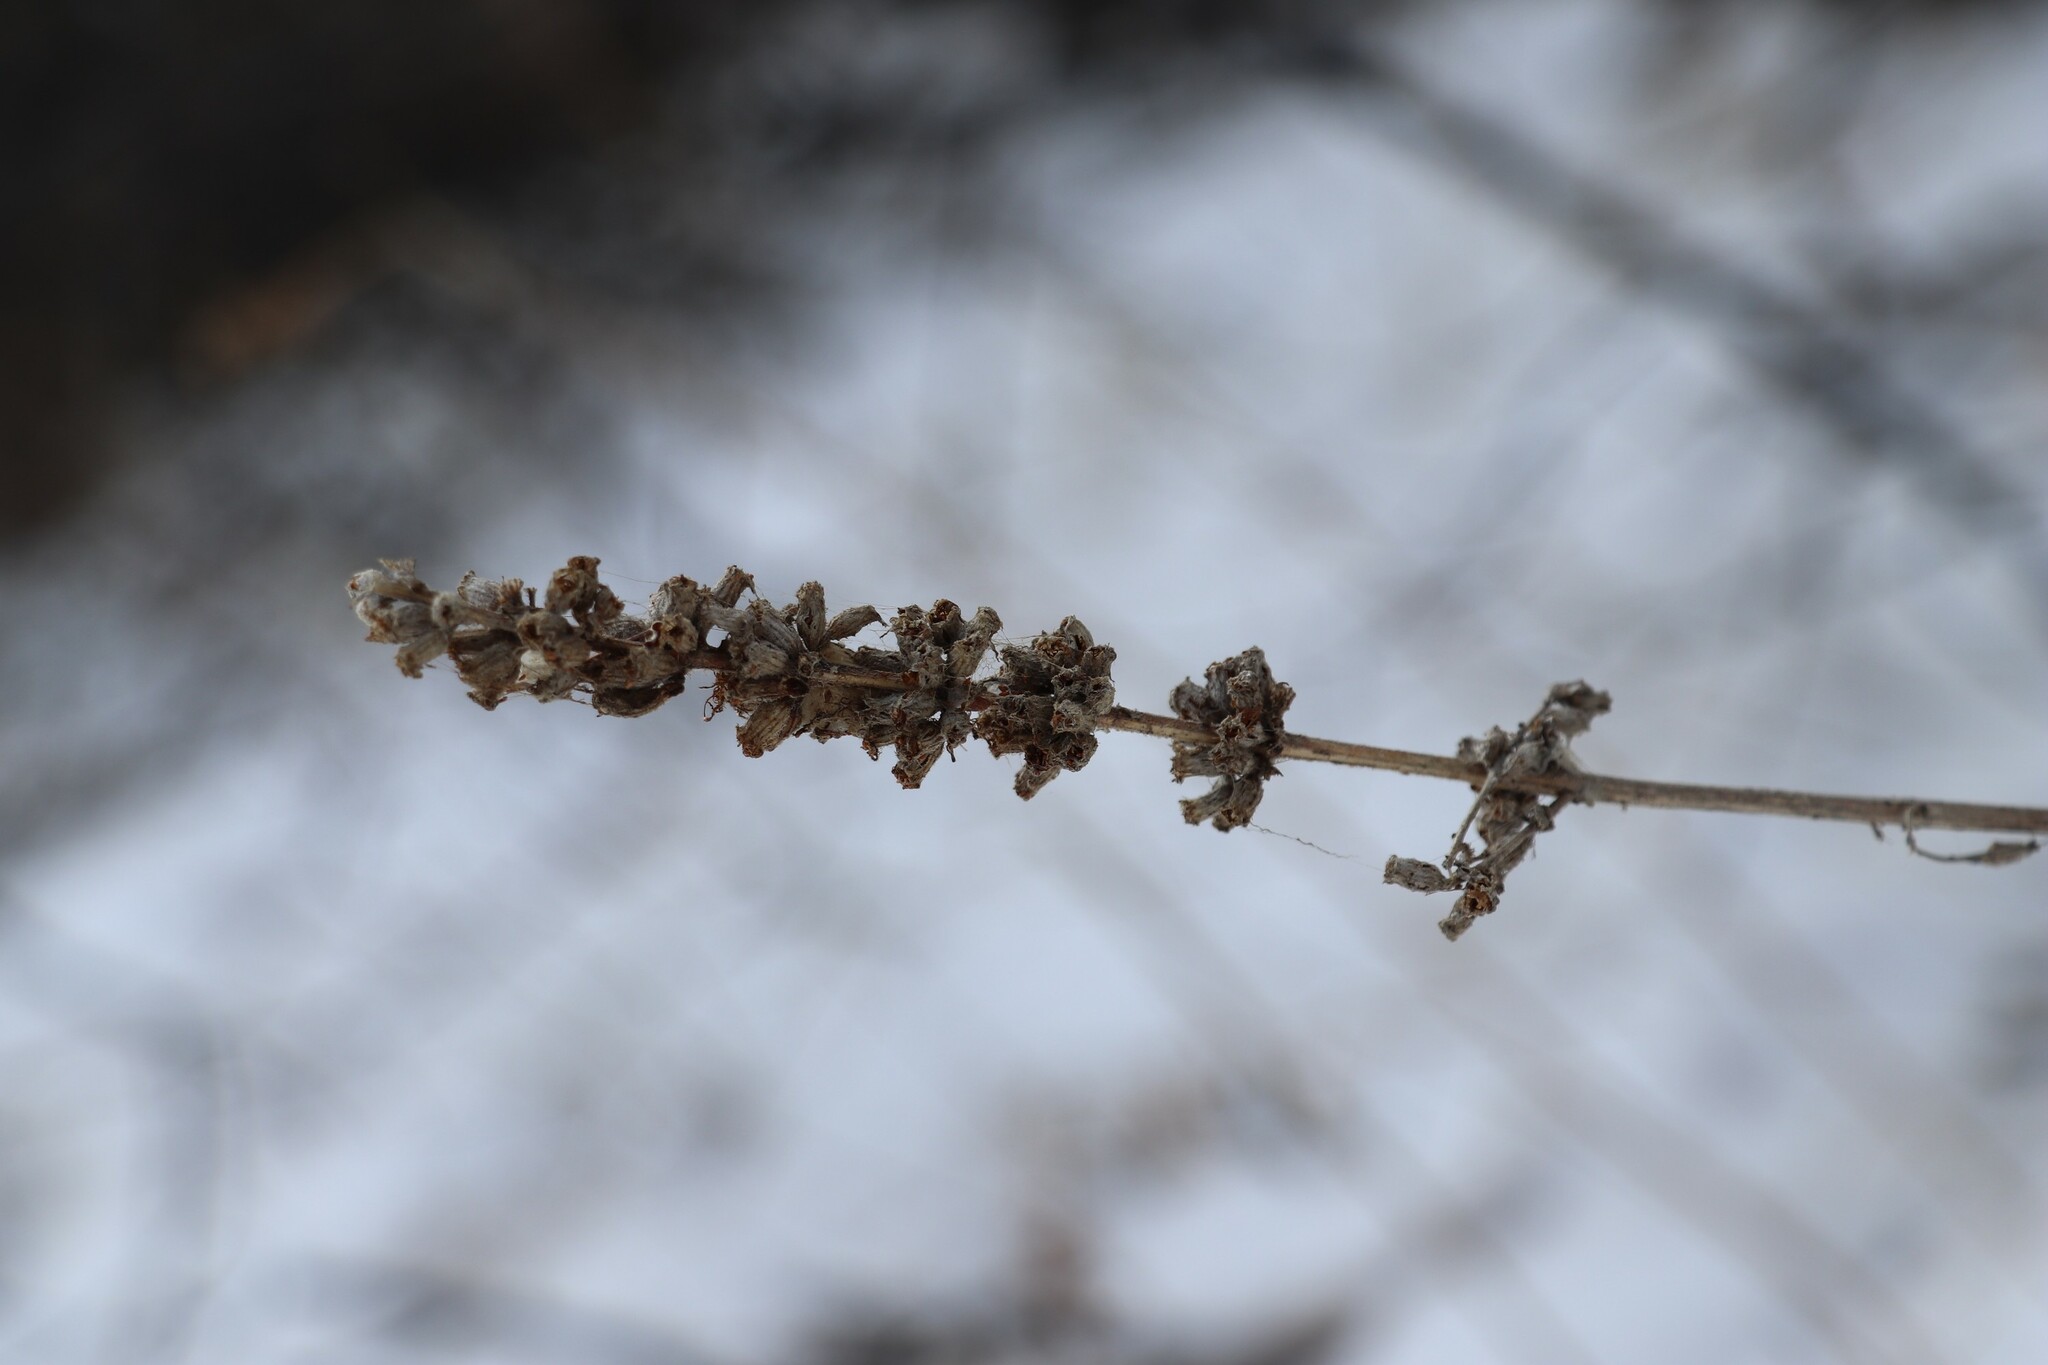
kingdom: Plantae
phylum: Tracheophyta
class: Magnoliopsida
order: Myrtales
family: Lythraceae
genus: Lythrum
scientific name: Lythrum salicaria
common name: Purple loosestrife
